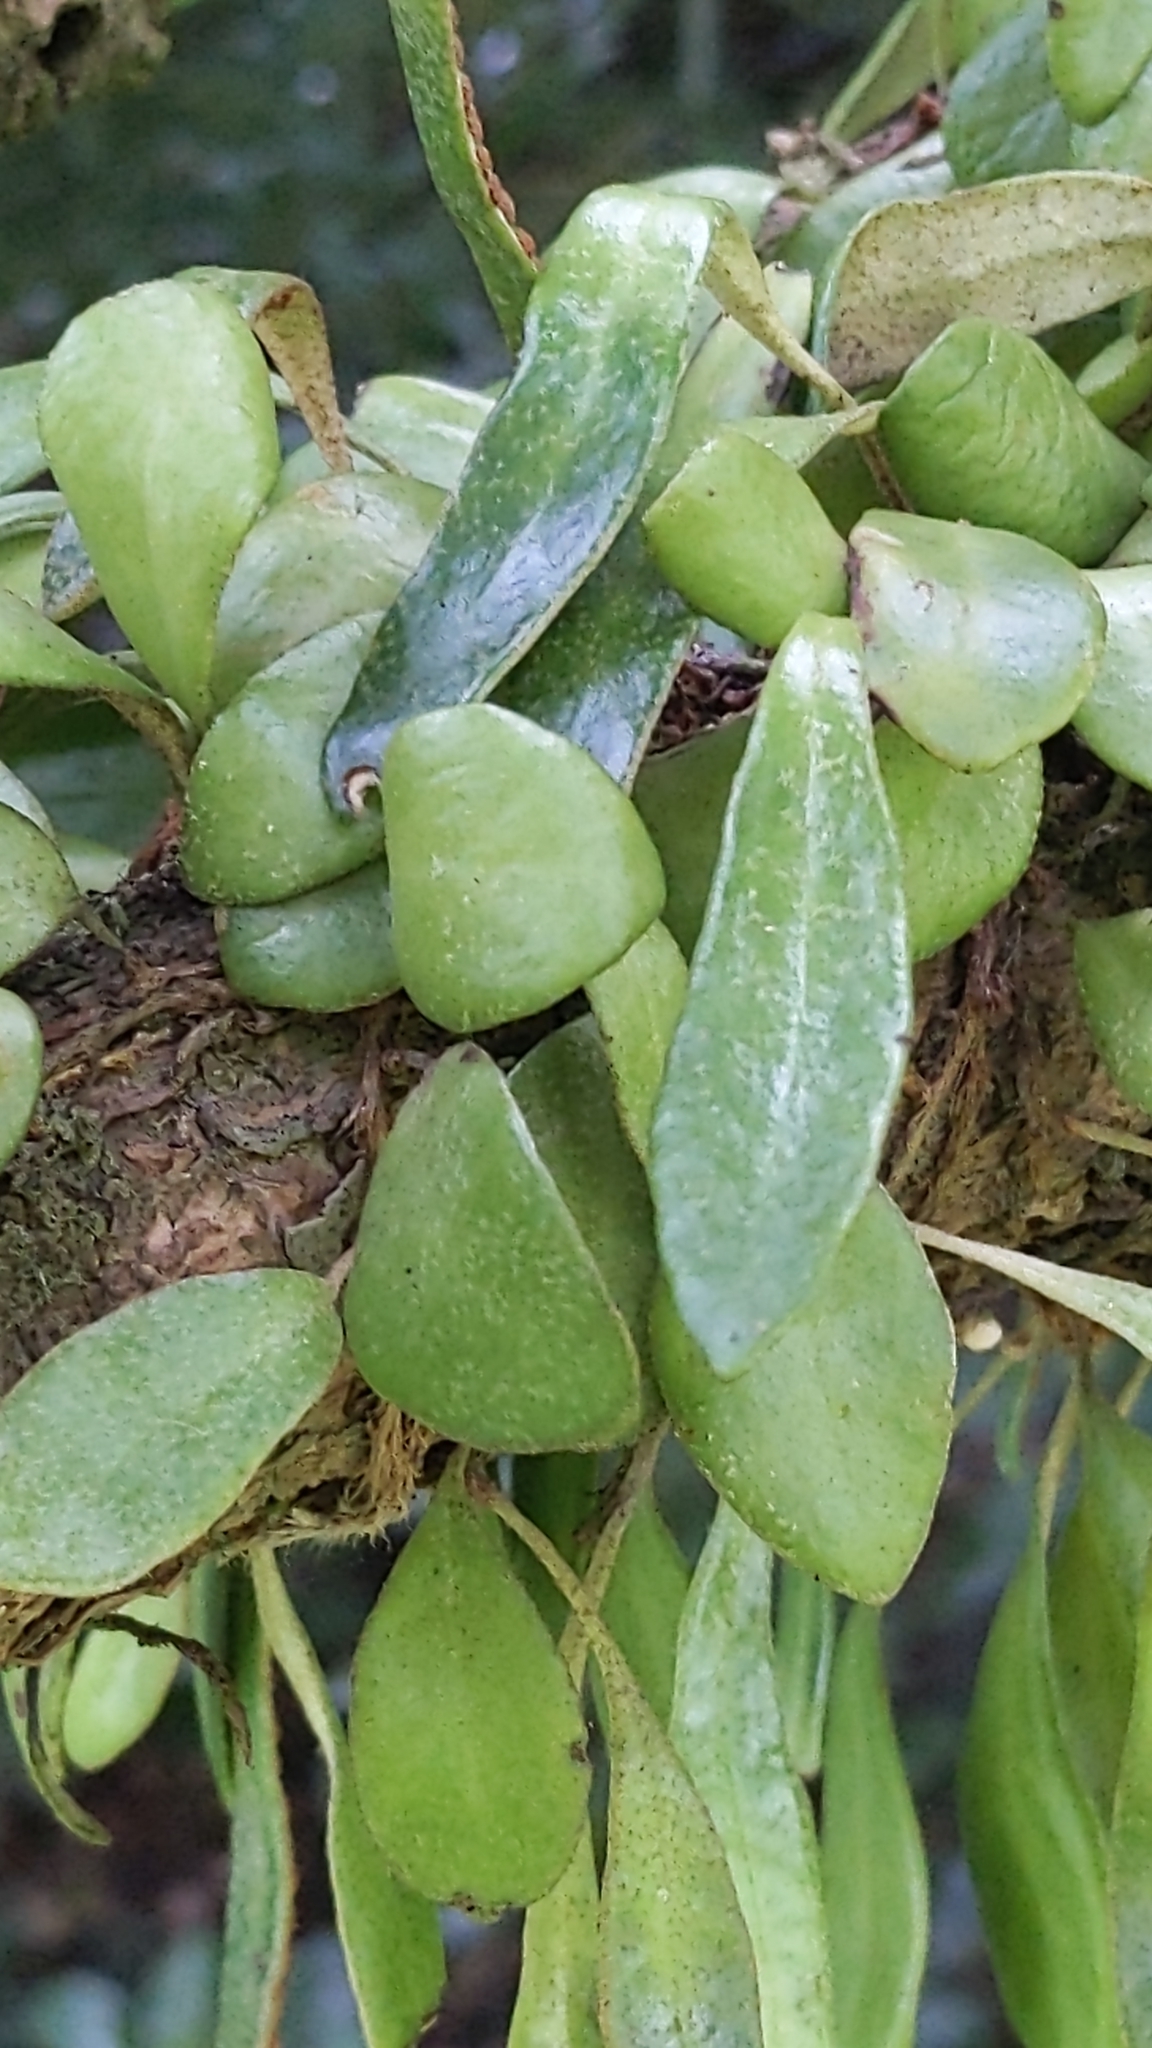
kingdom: Plantae
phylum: Tracheophyta
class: Polypodiopsida
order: Polypodiales
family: Polypodiaceae
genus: Pyrrosia
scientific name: Pyrrosia eleagnifolia
